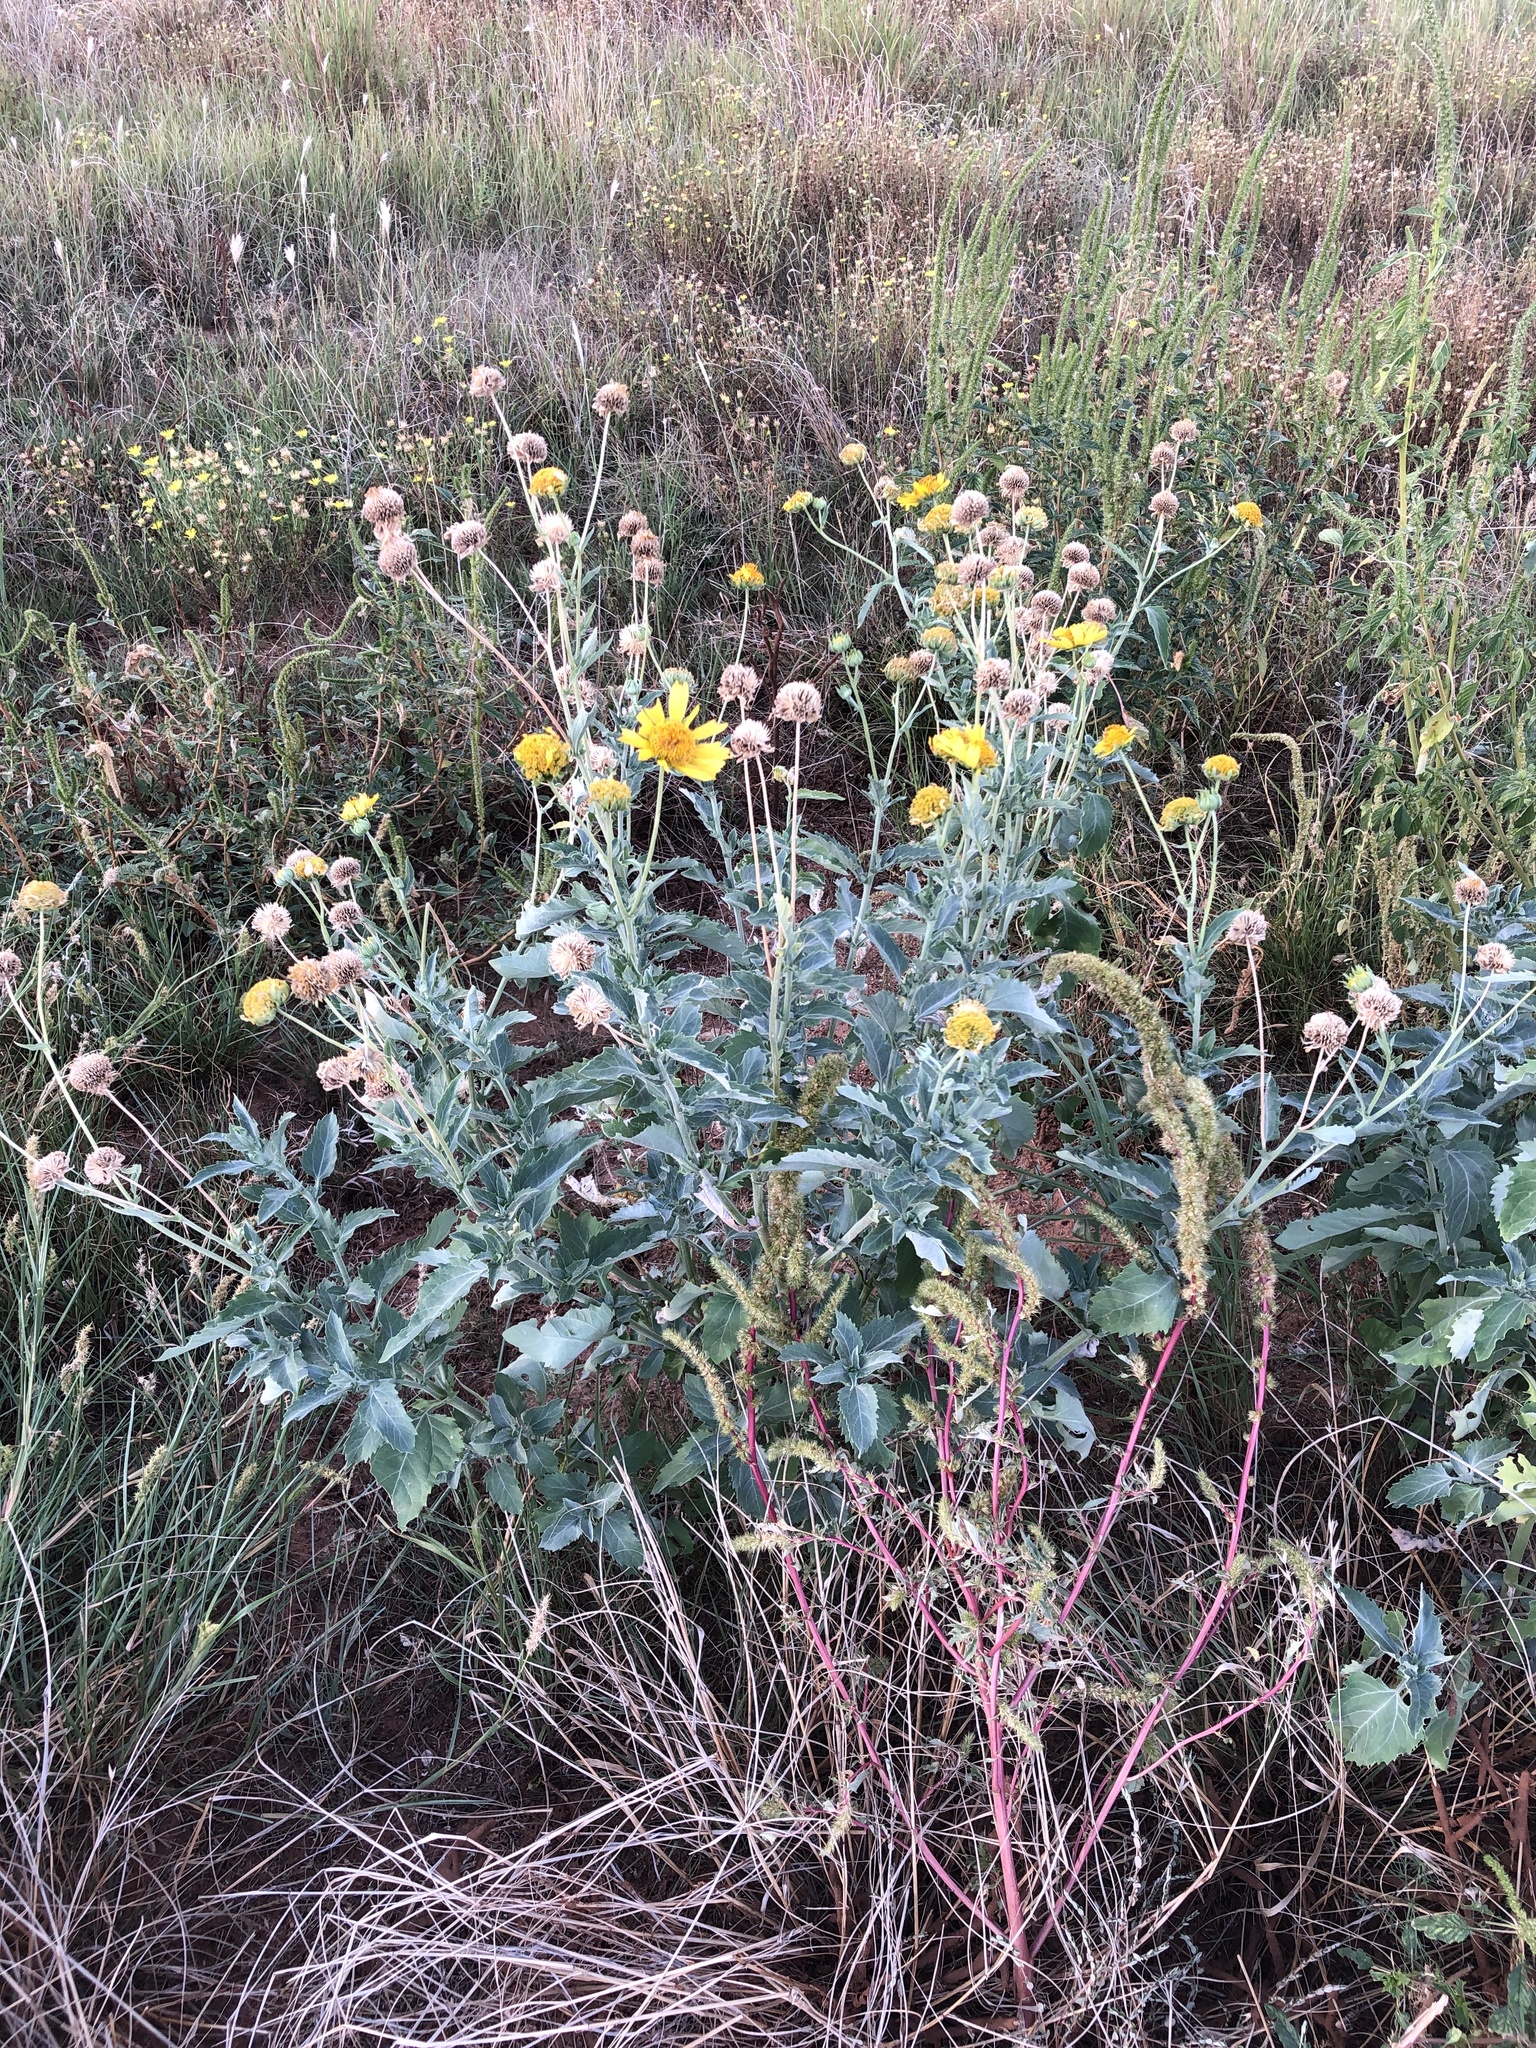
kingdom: Plantae
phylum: Tracheophyta
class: Magnoliopsida
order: Asterales
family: Asteraceae
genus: Verbesina
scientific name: Verbesina encelioides
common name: Golden crownbeard
